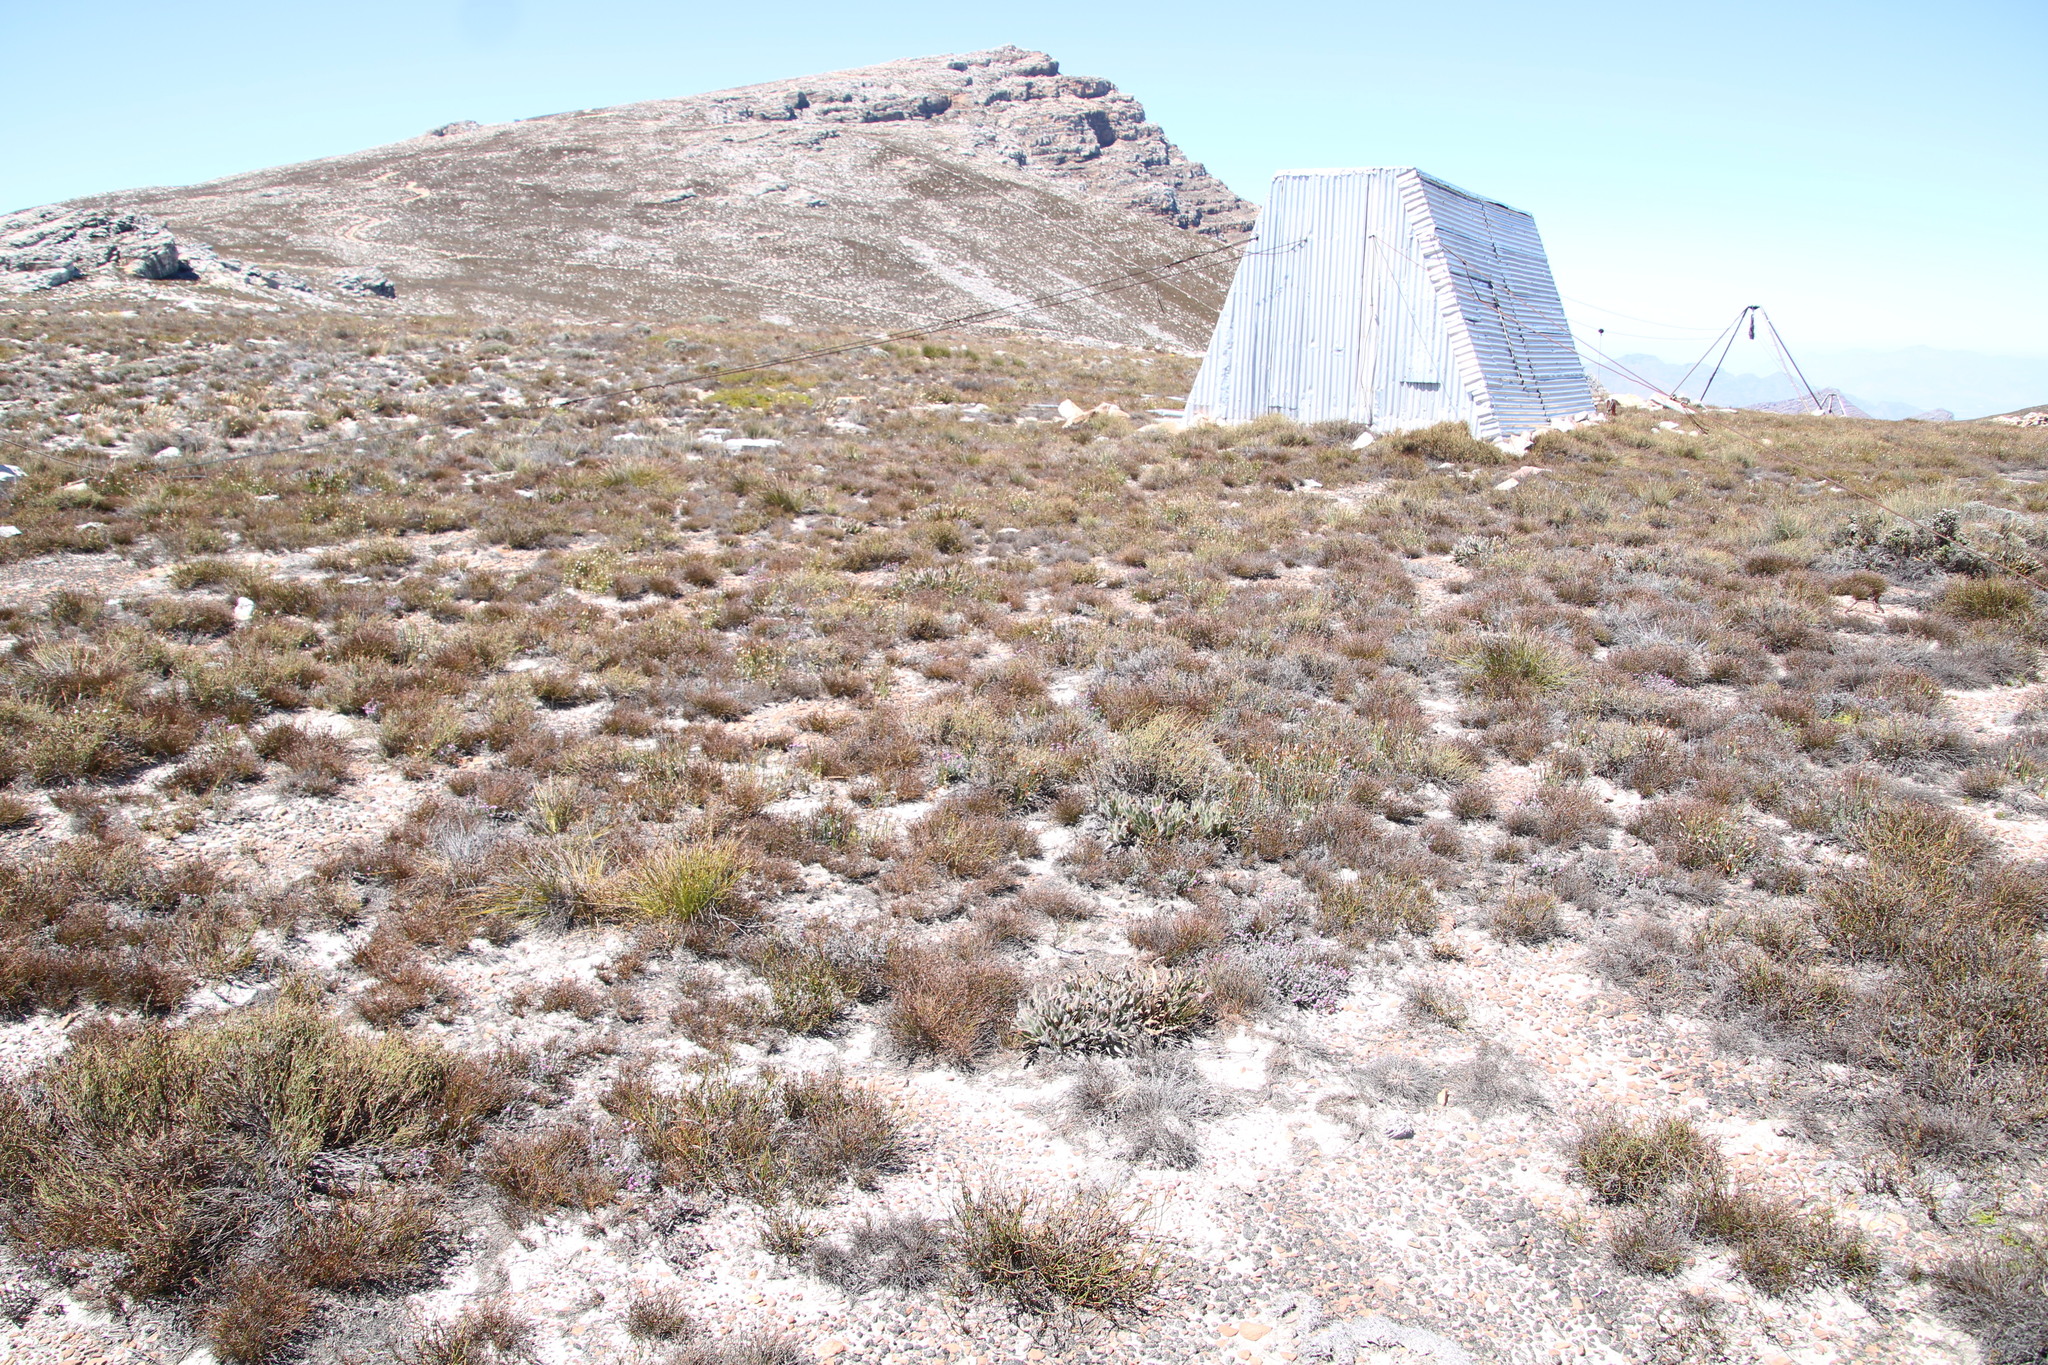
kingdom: Plantae
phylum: Tracheophyta
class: Magnoliopsida
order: Proteales
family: Proteaceae
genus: Protea
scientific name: Protea scabriuscula
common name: Hoary sugarbush
